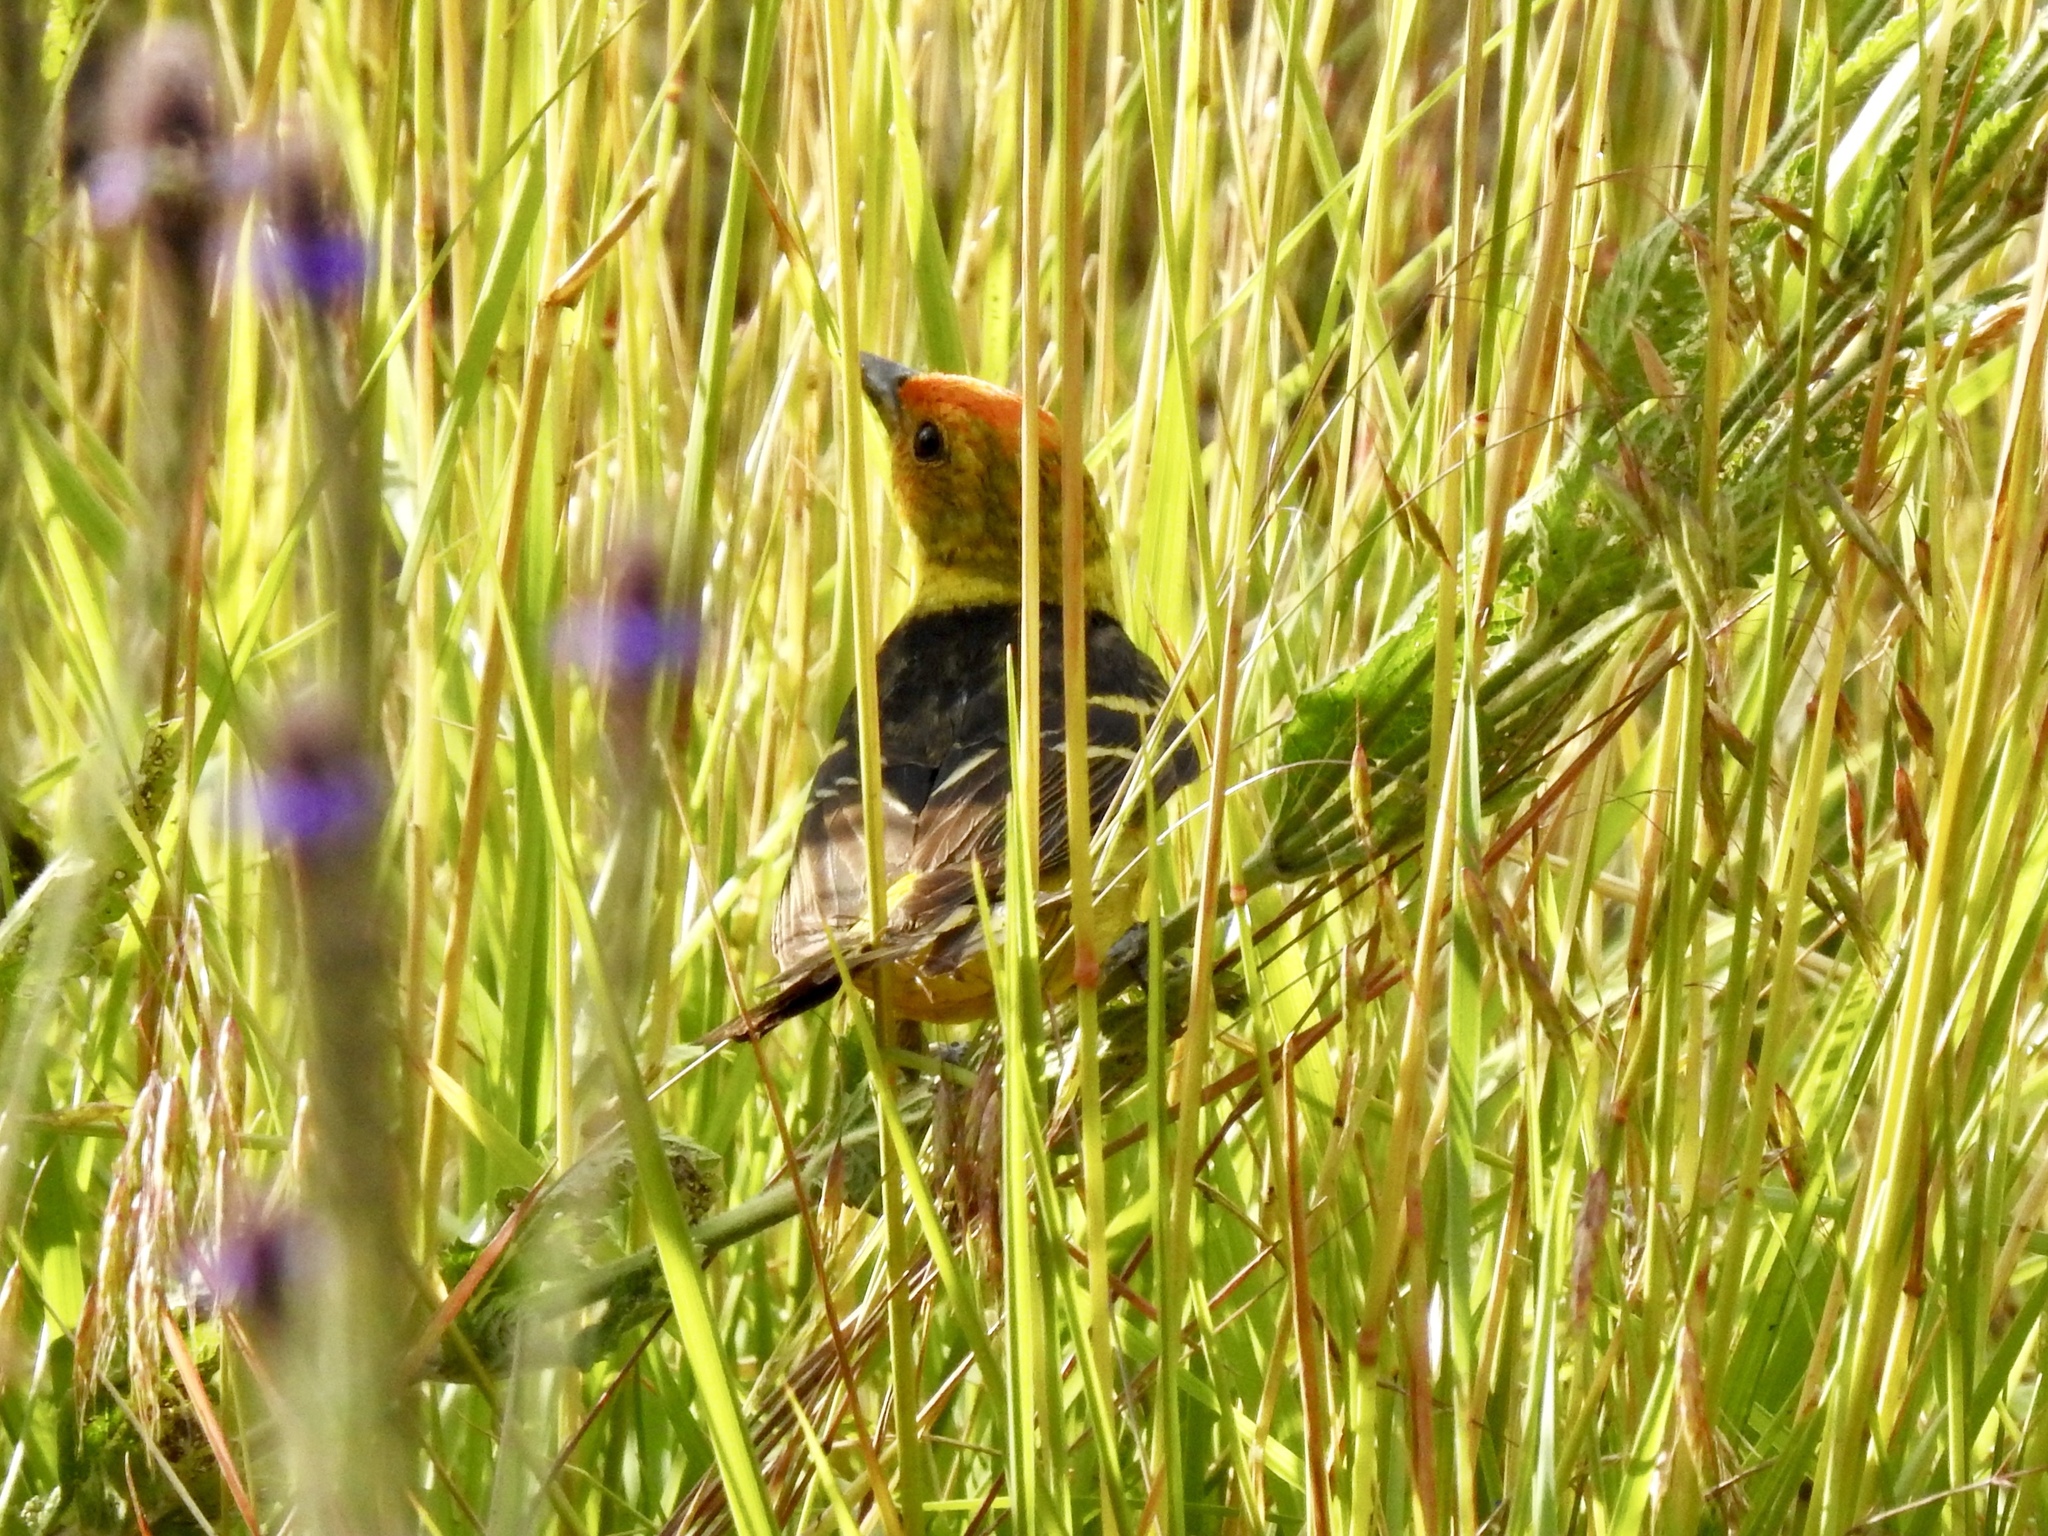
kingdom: Animalia
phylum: Chordata
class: Aves
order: Passeriformes
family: Cardinalidae
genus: Piranga
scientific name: Piranga ludoviciana
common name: Western tanager
